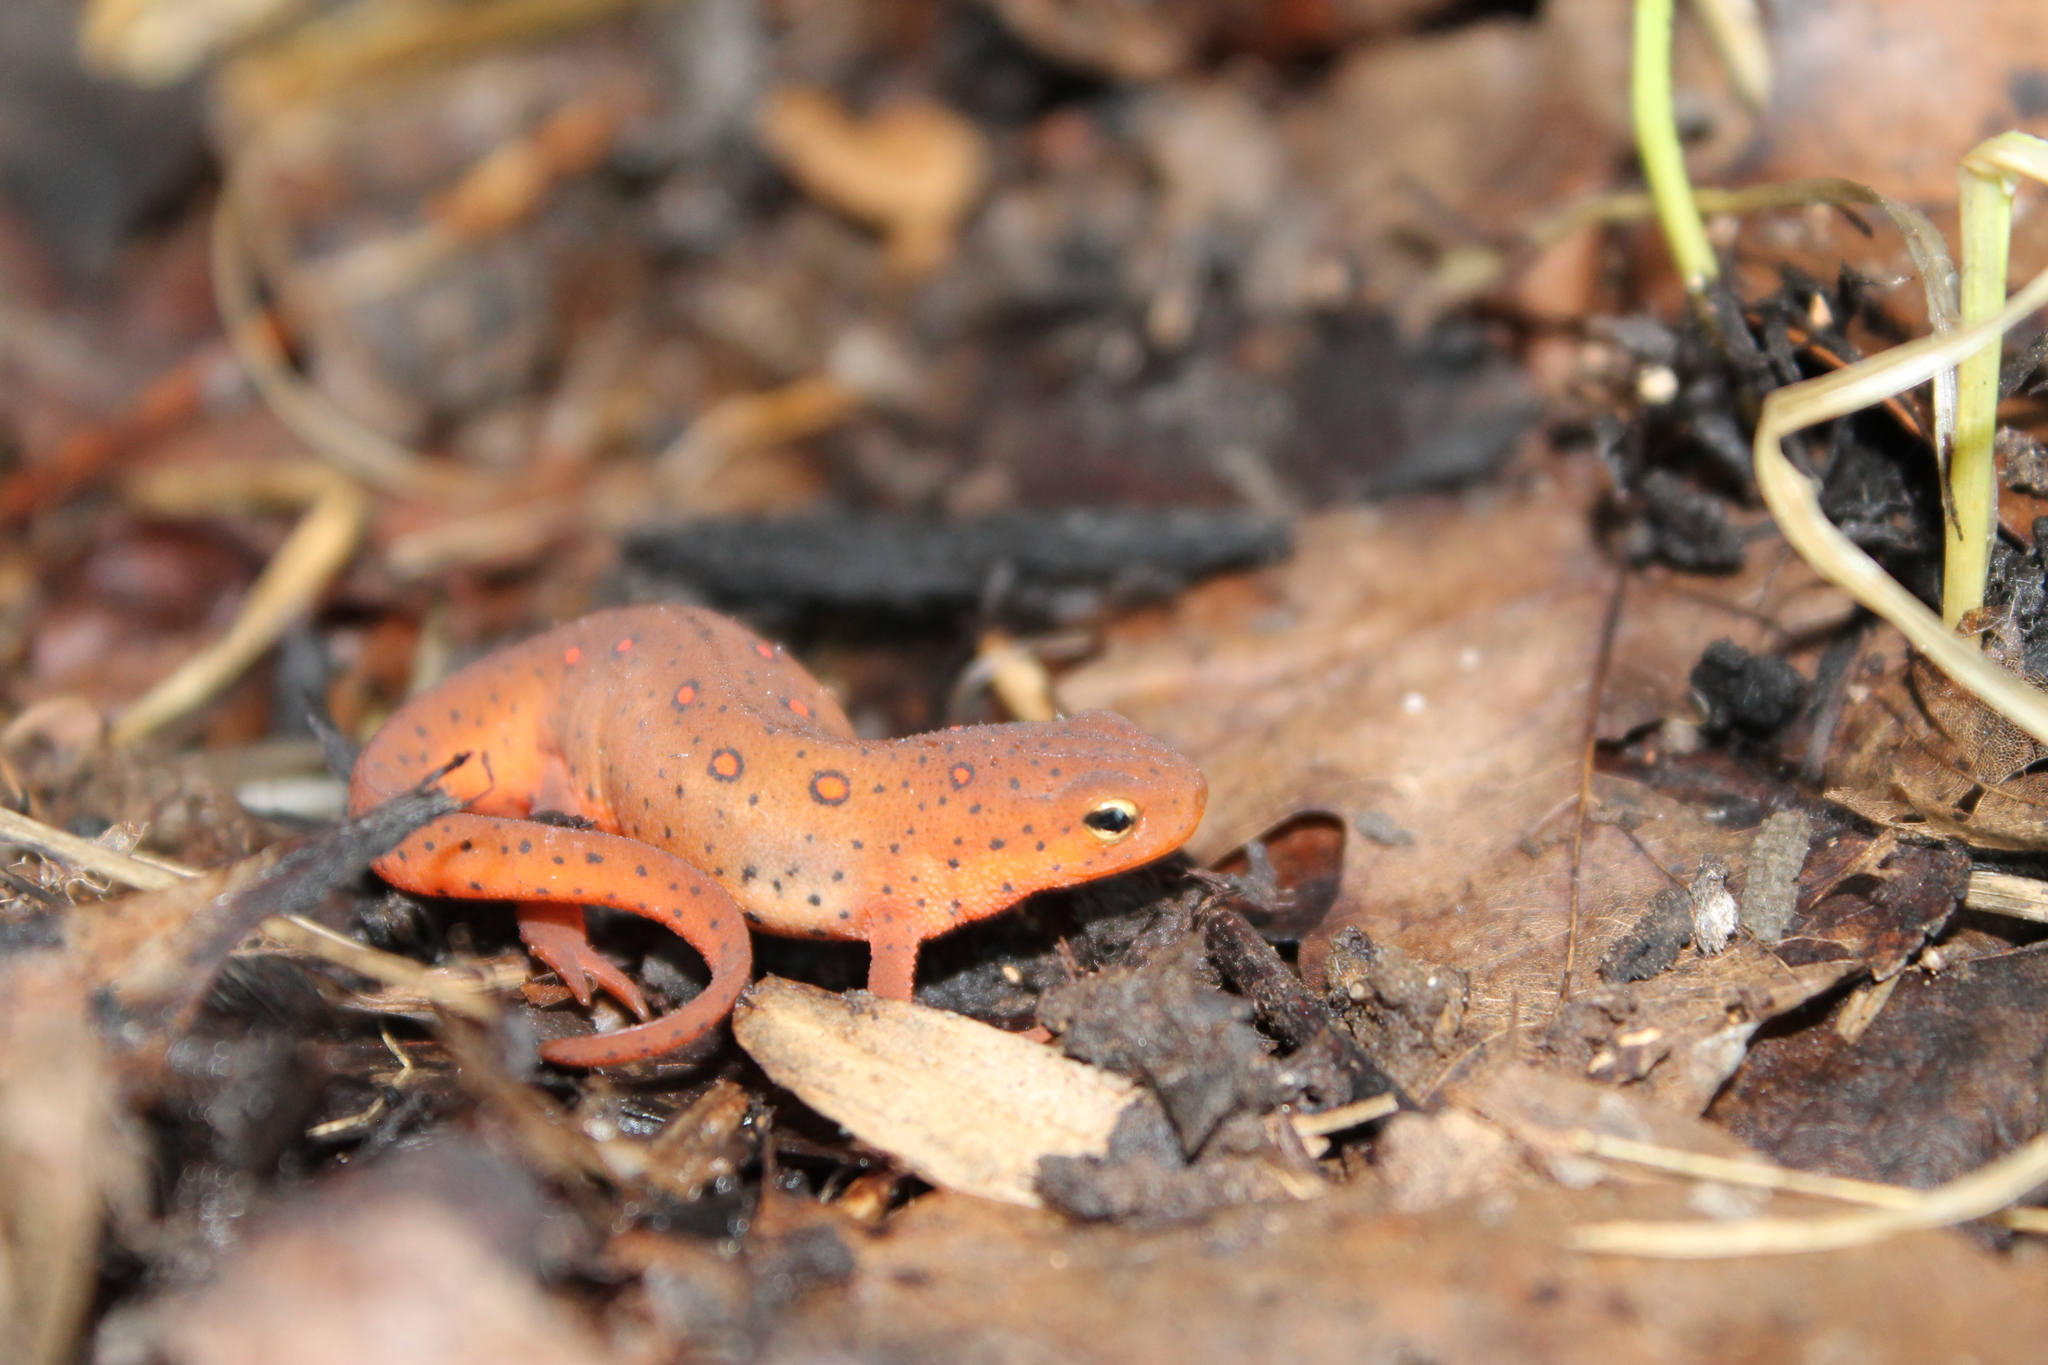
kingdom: Animalia
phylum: Chordata
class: Amphibia
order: Caudata
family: Salamandridae
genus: Notophthalmus
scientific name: Notophthalmus viridescens
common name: Eastern newt
